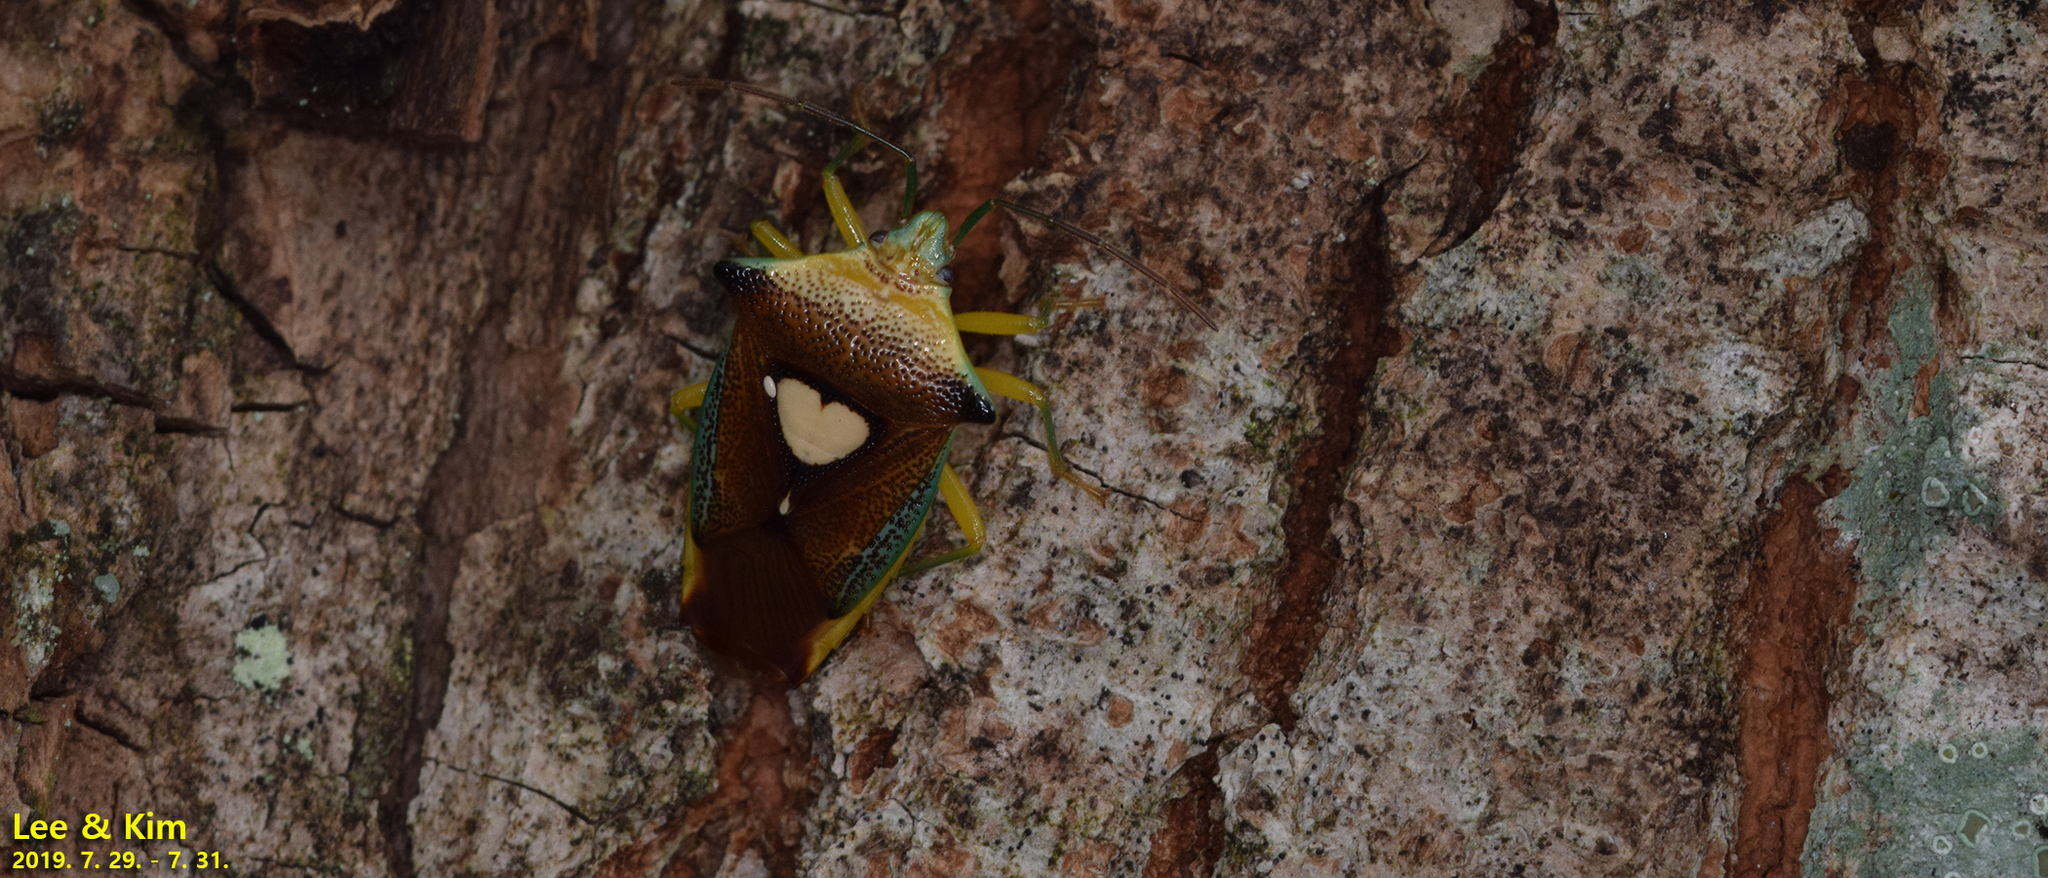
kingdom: Animalia
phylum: Arthropoda
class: Insecta
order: Hemiptera
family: Acanthosomatidae
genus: Sastragala
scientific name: Sastragala esakii
